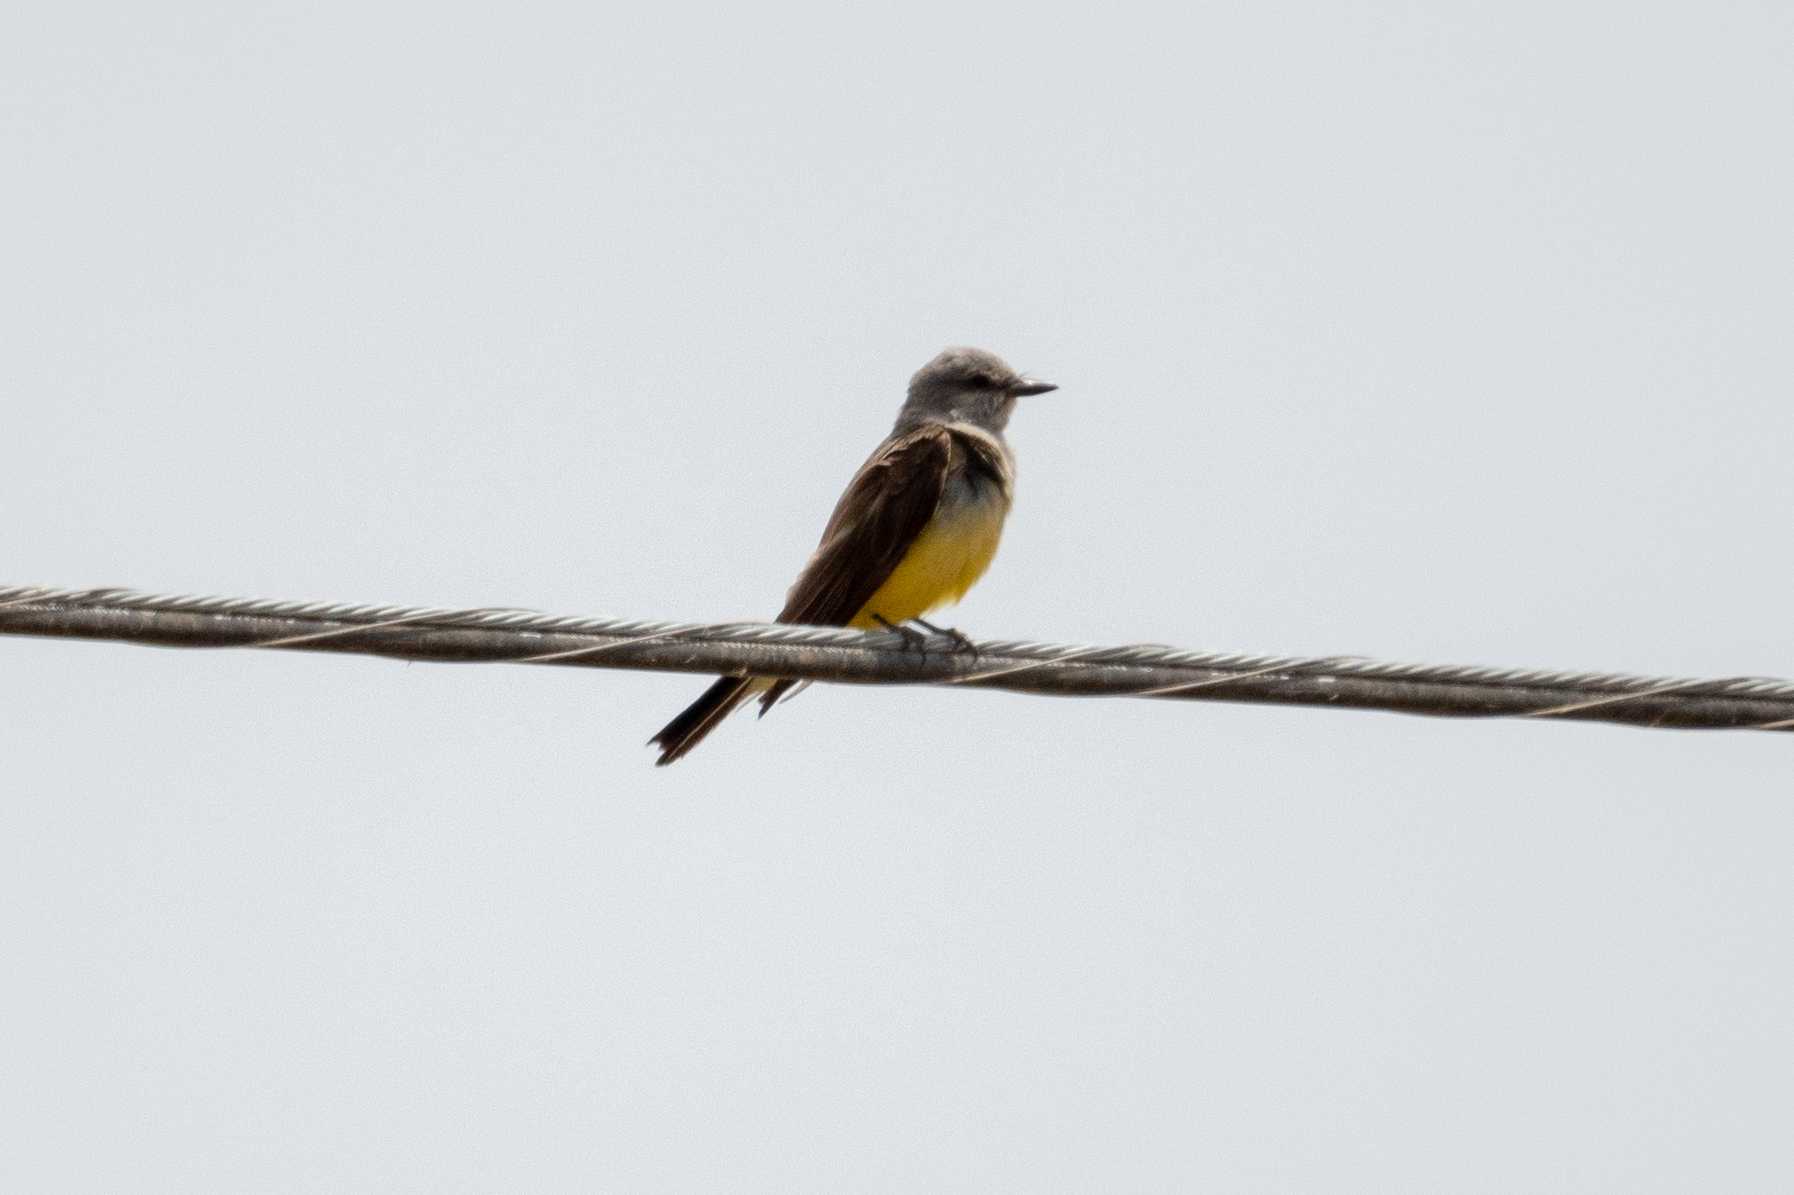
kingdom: Animalia
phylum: Chordata
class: Aves
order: Passeriformes
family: Tyrannidae
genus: Tyrannus
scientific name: Tyrannus verticalis
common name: Western kingbird
